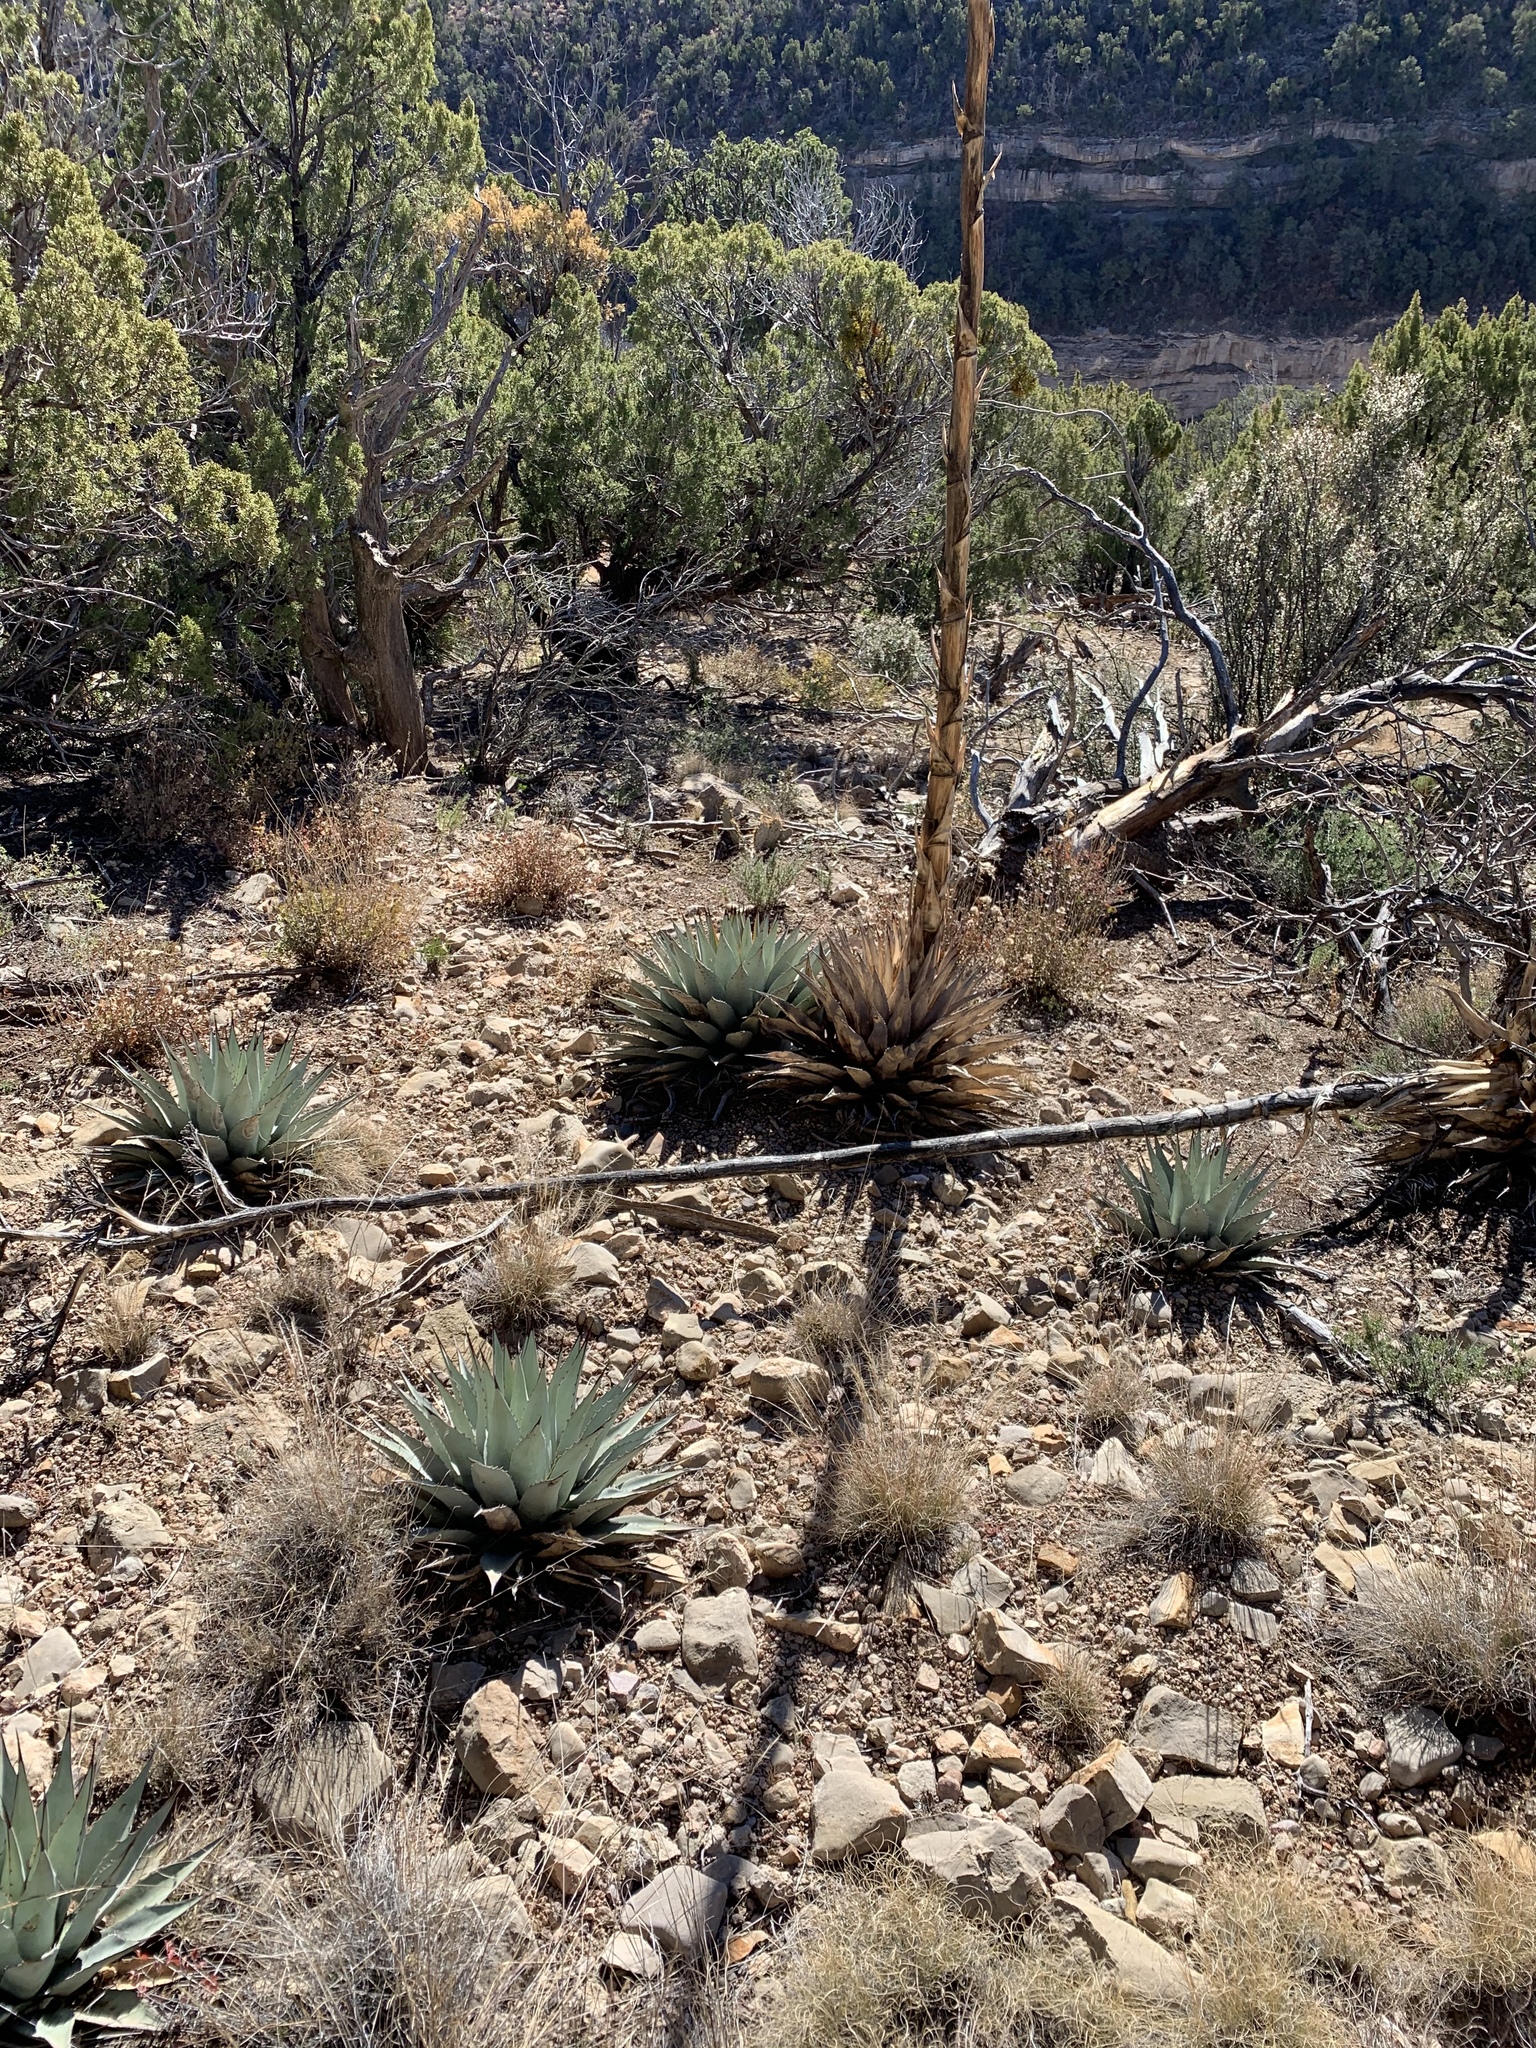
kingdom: Plantae
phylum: Tracheophyta
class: Liliopsida
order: Asparagales
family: Asparagaceae
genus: Agave
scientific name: Agave parryi
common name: Parry's agave
